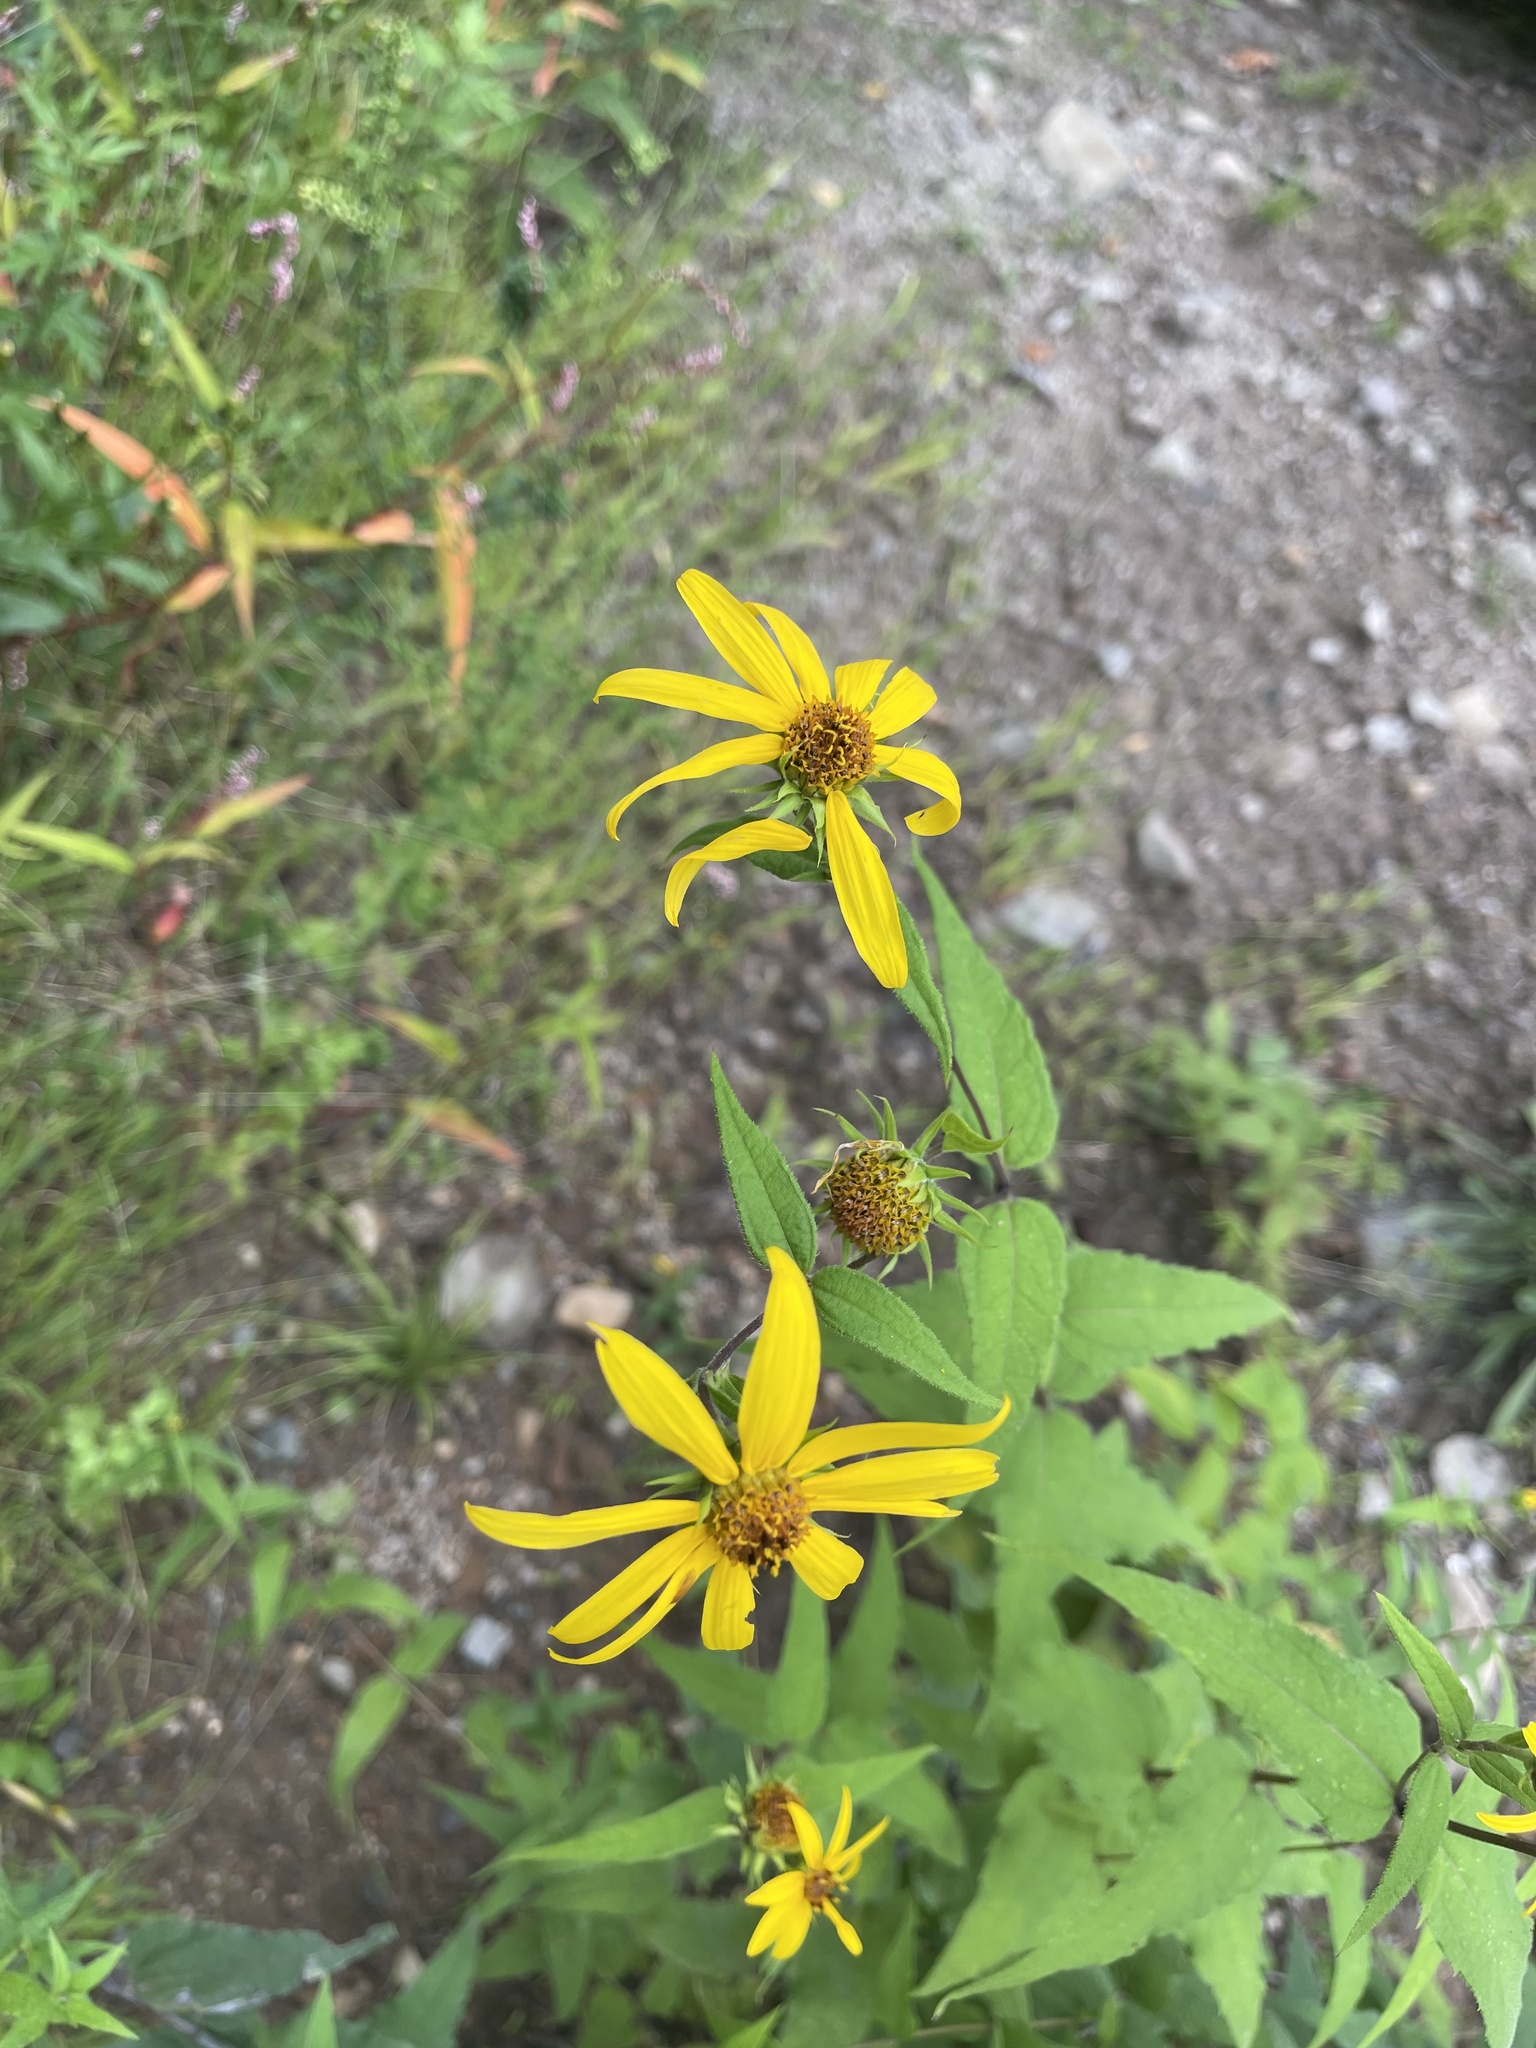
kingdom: Plantae
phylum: Tracheophyta
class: Magnoliopsida
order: Asterales
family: Asteraceae
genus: Helianthus
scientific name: Helianthus divaricatus
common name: Divergent sunflower
